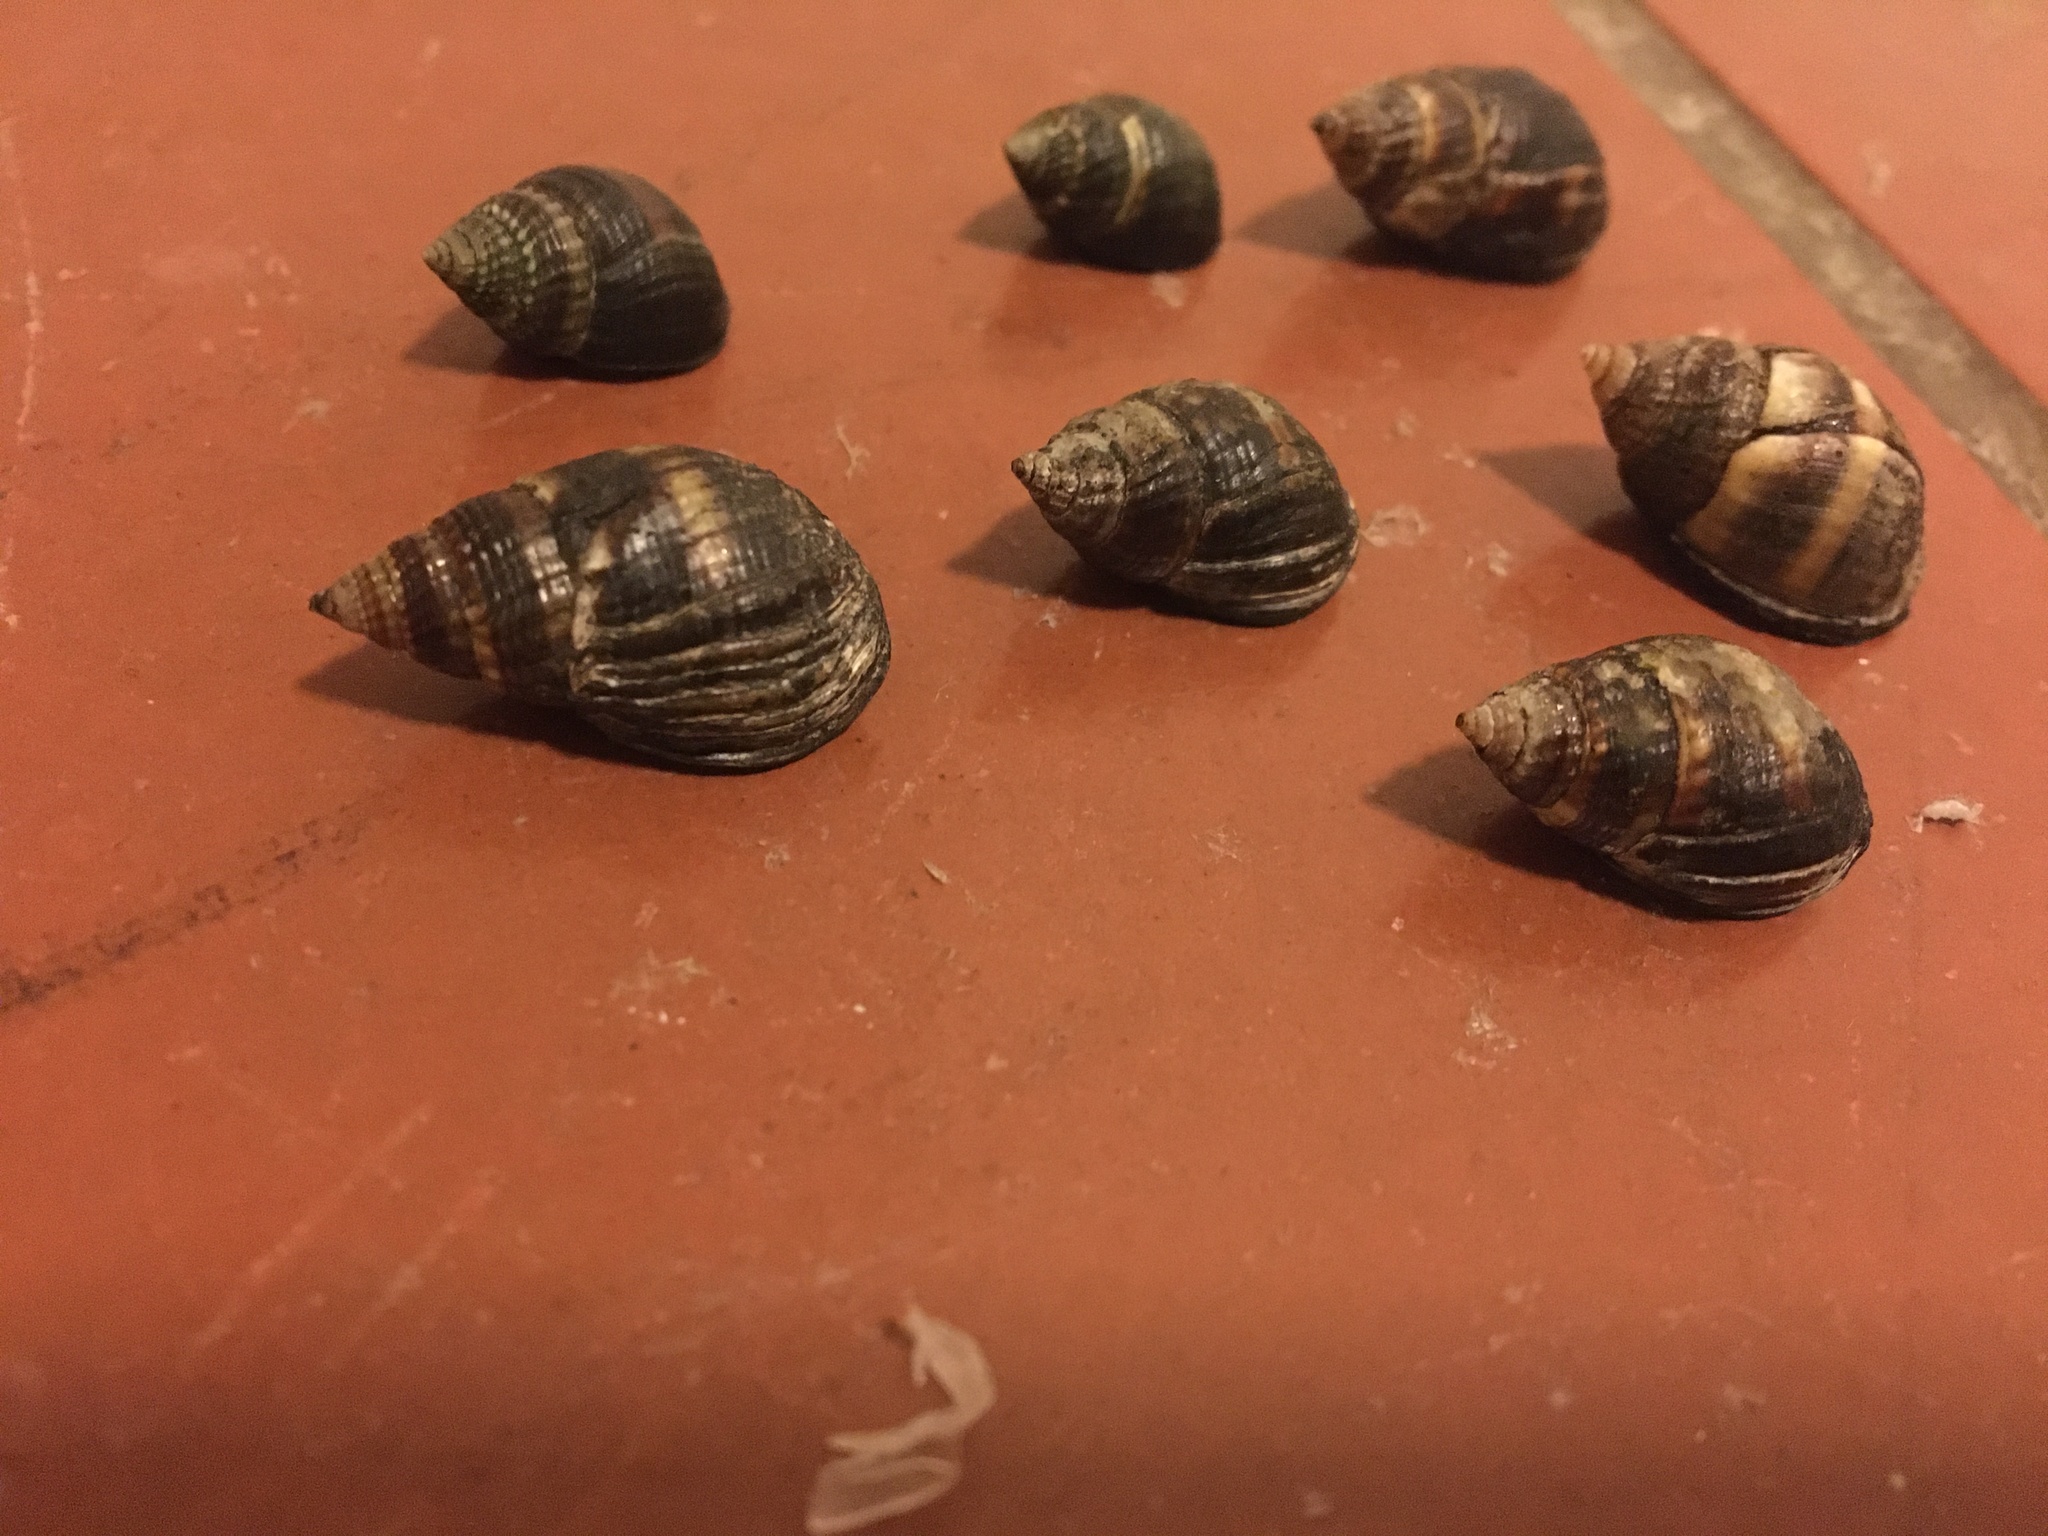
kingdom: Animalia
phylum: Mollusca
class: Gastropoda
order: Neogastropoda
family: Nassariidae
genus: Ilyanassa
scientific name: Ilyanassa obsoleta
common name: Eastern mudsnail
